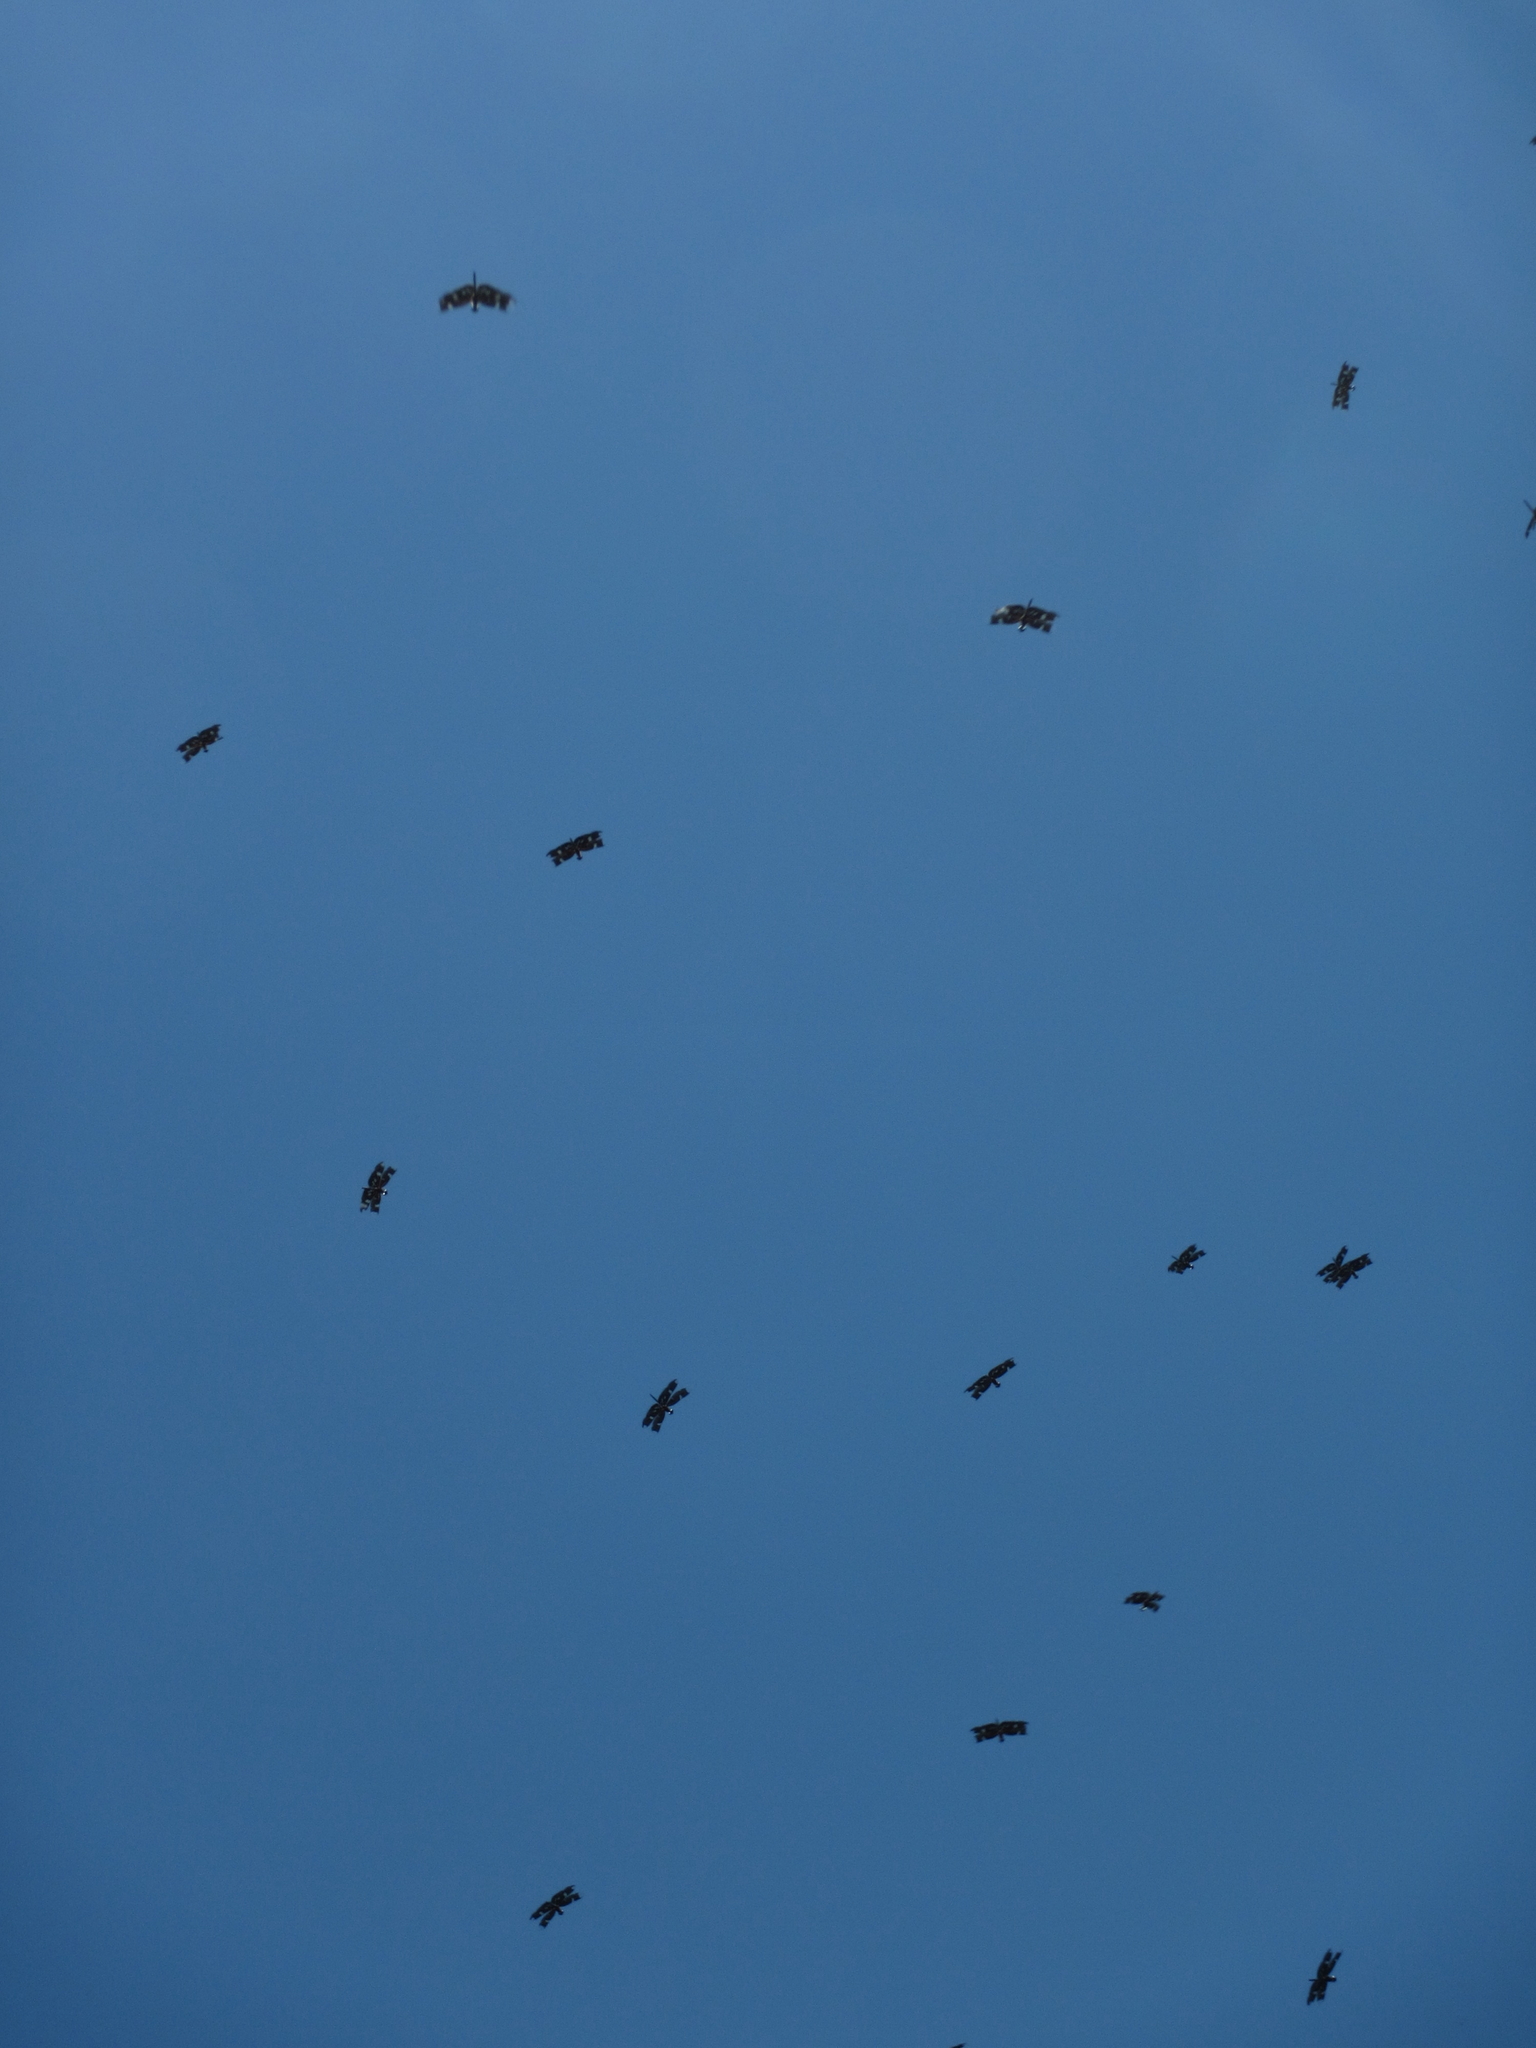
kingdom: Animalia
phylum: Arthropoda
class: Insecta
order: Odonata
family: Libellulidae
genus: Rhyothemis
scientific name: Rhyothemis fenestrina
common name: Skylight flutterer
